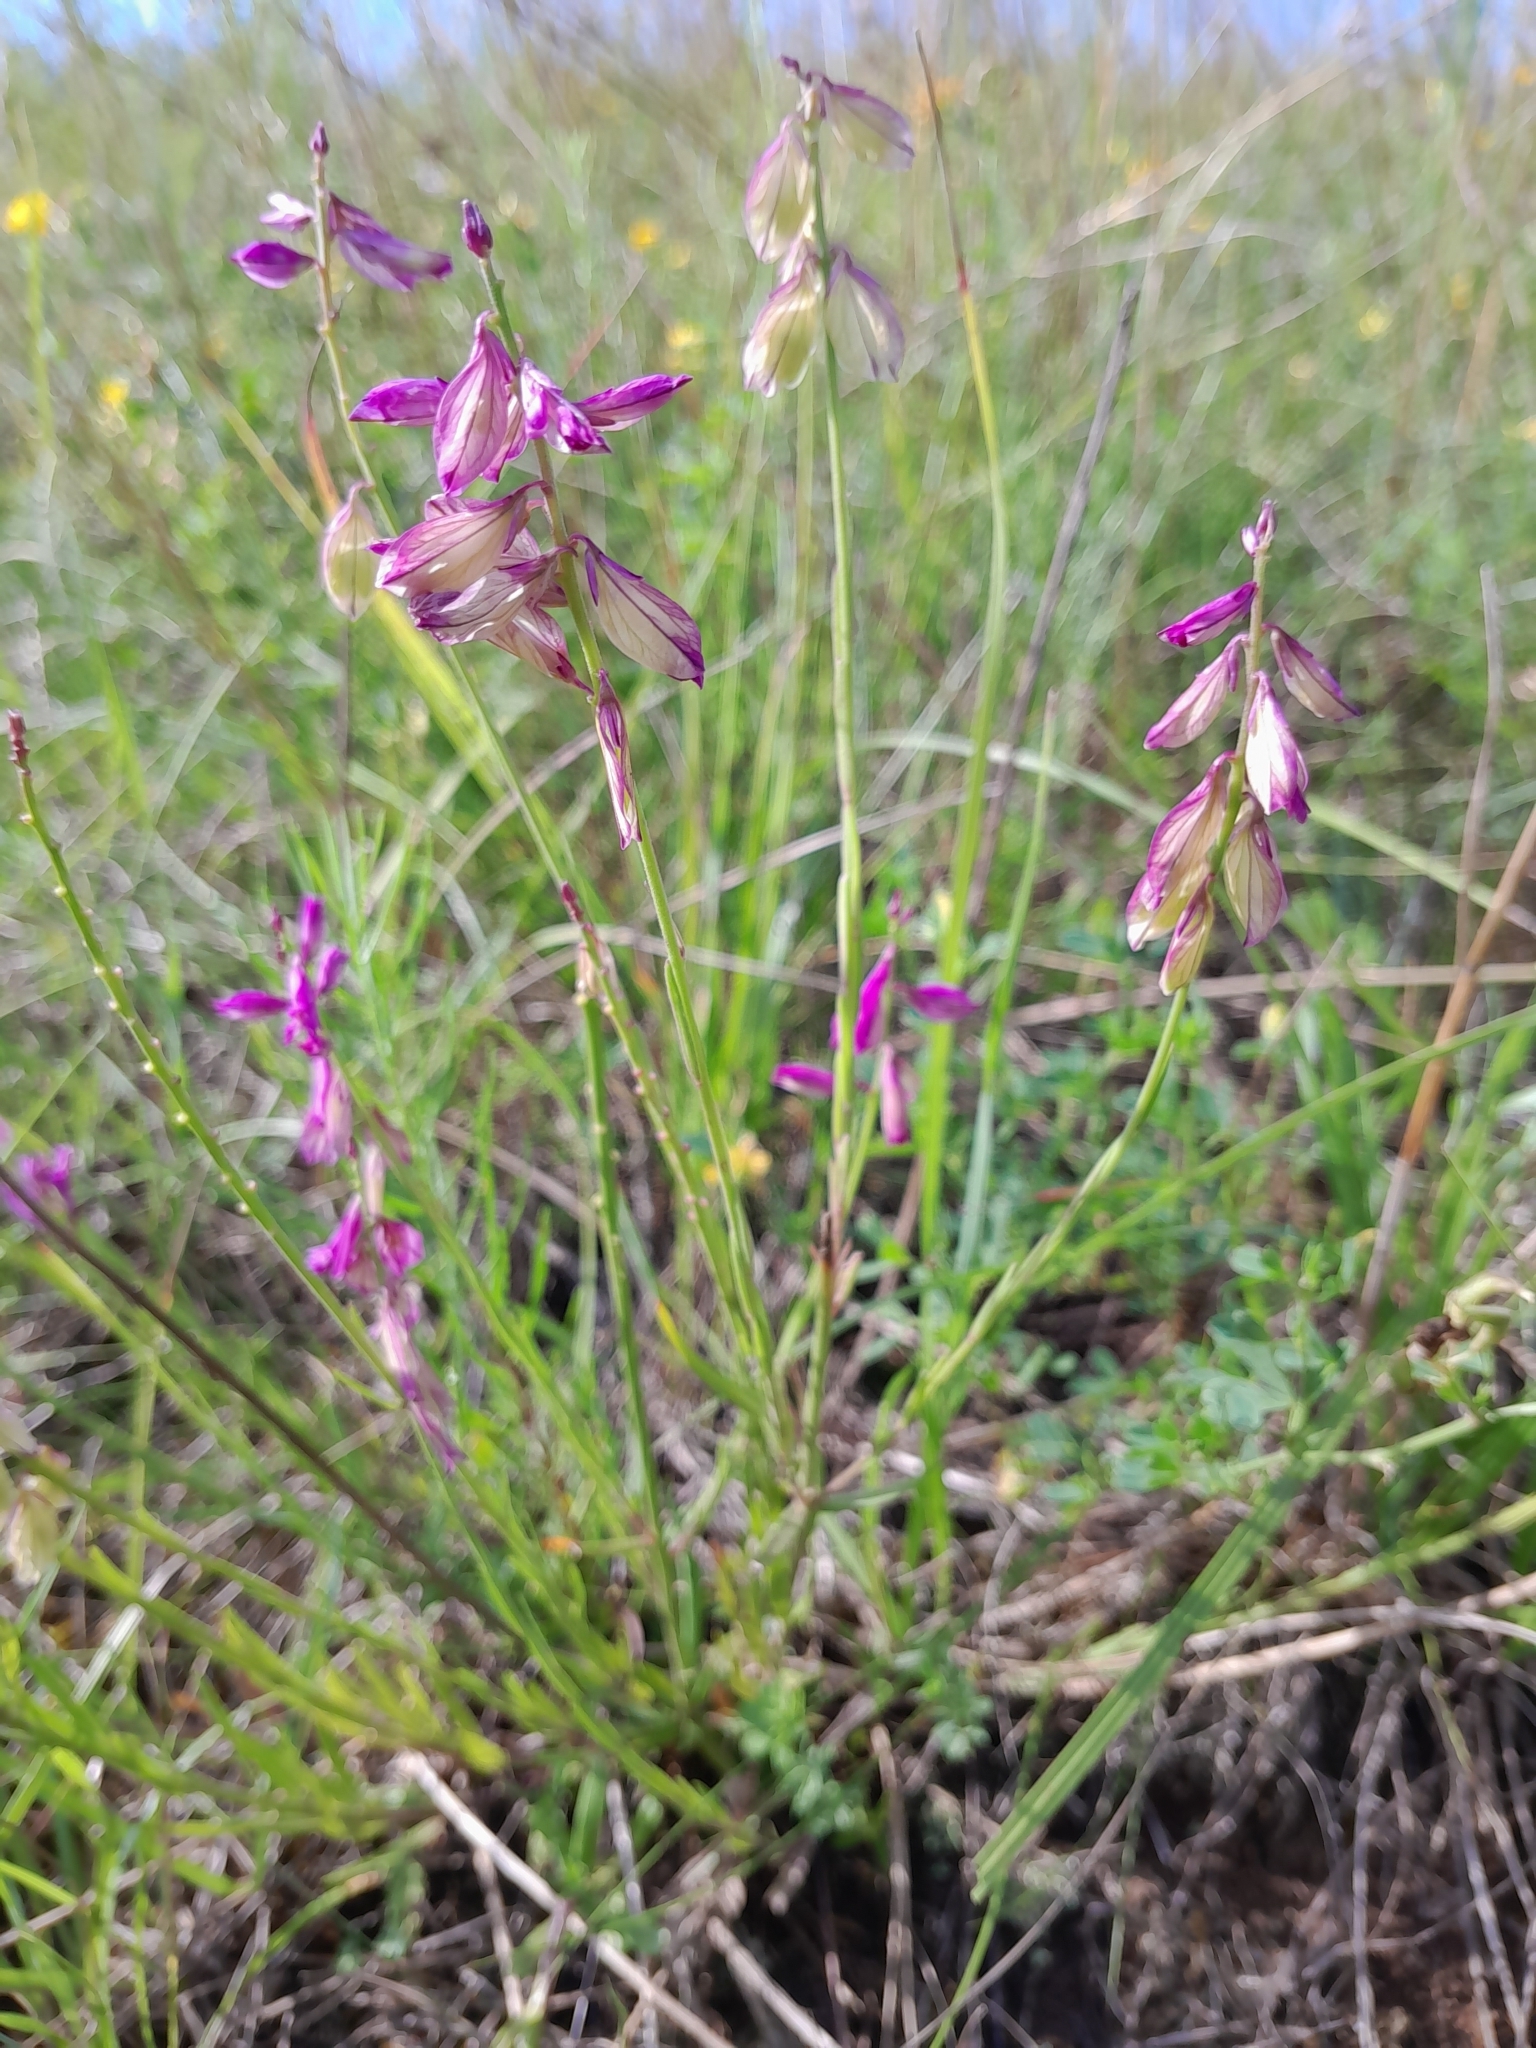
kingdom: Plantae
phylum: Tracheophyta
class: Magnoliopsida
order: Fabales
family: Polygalaceae
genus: Polygala
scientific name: Polygala major
